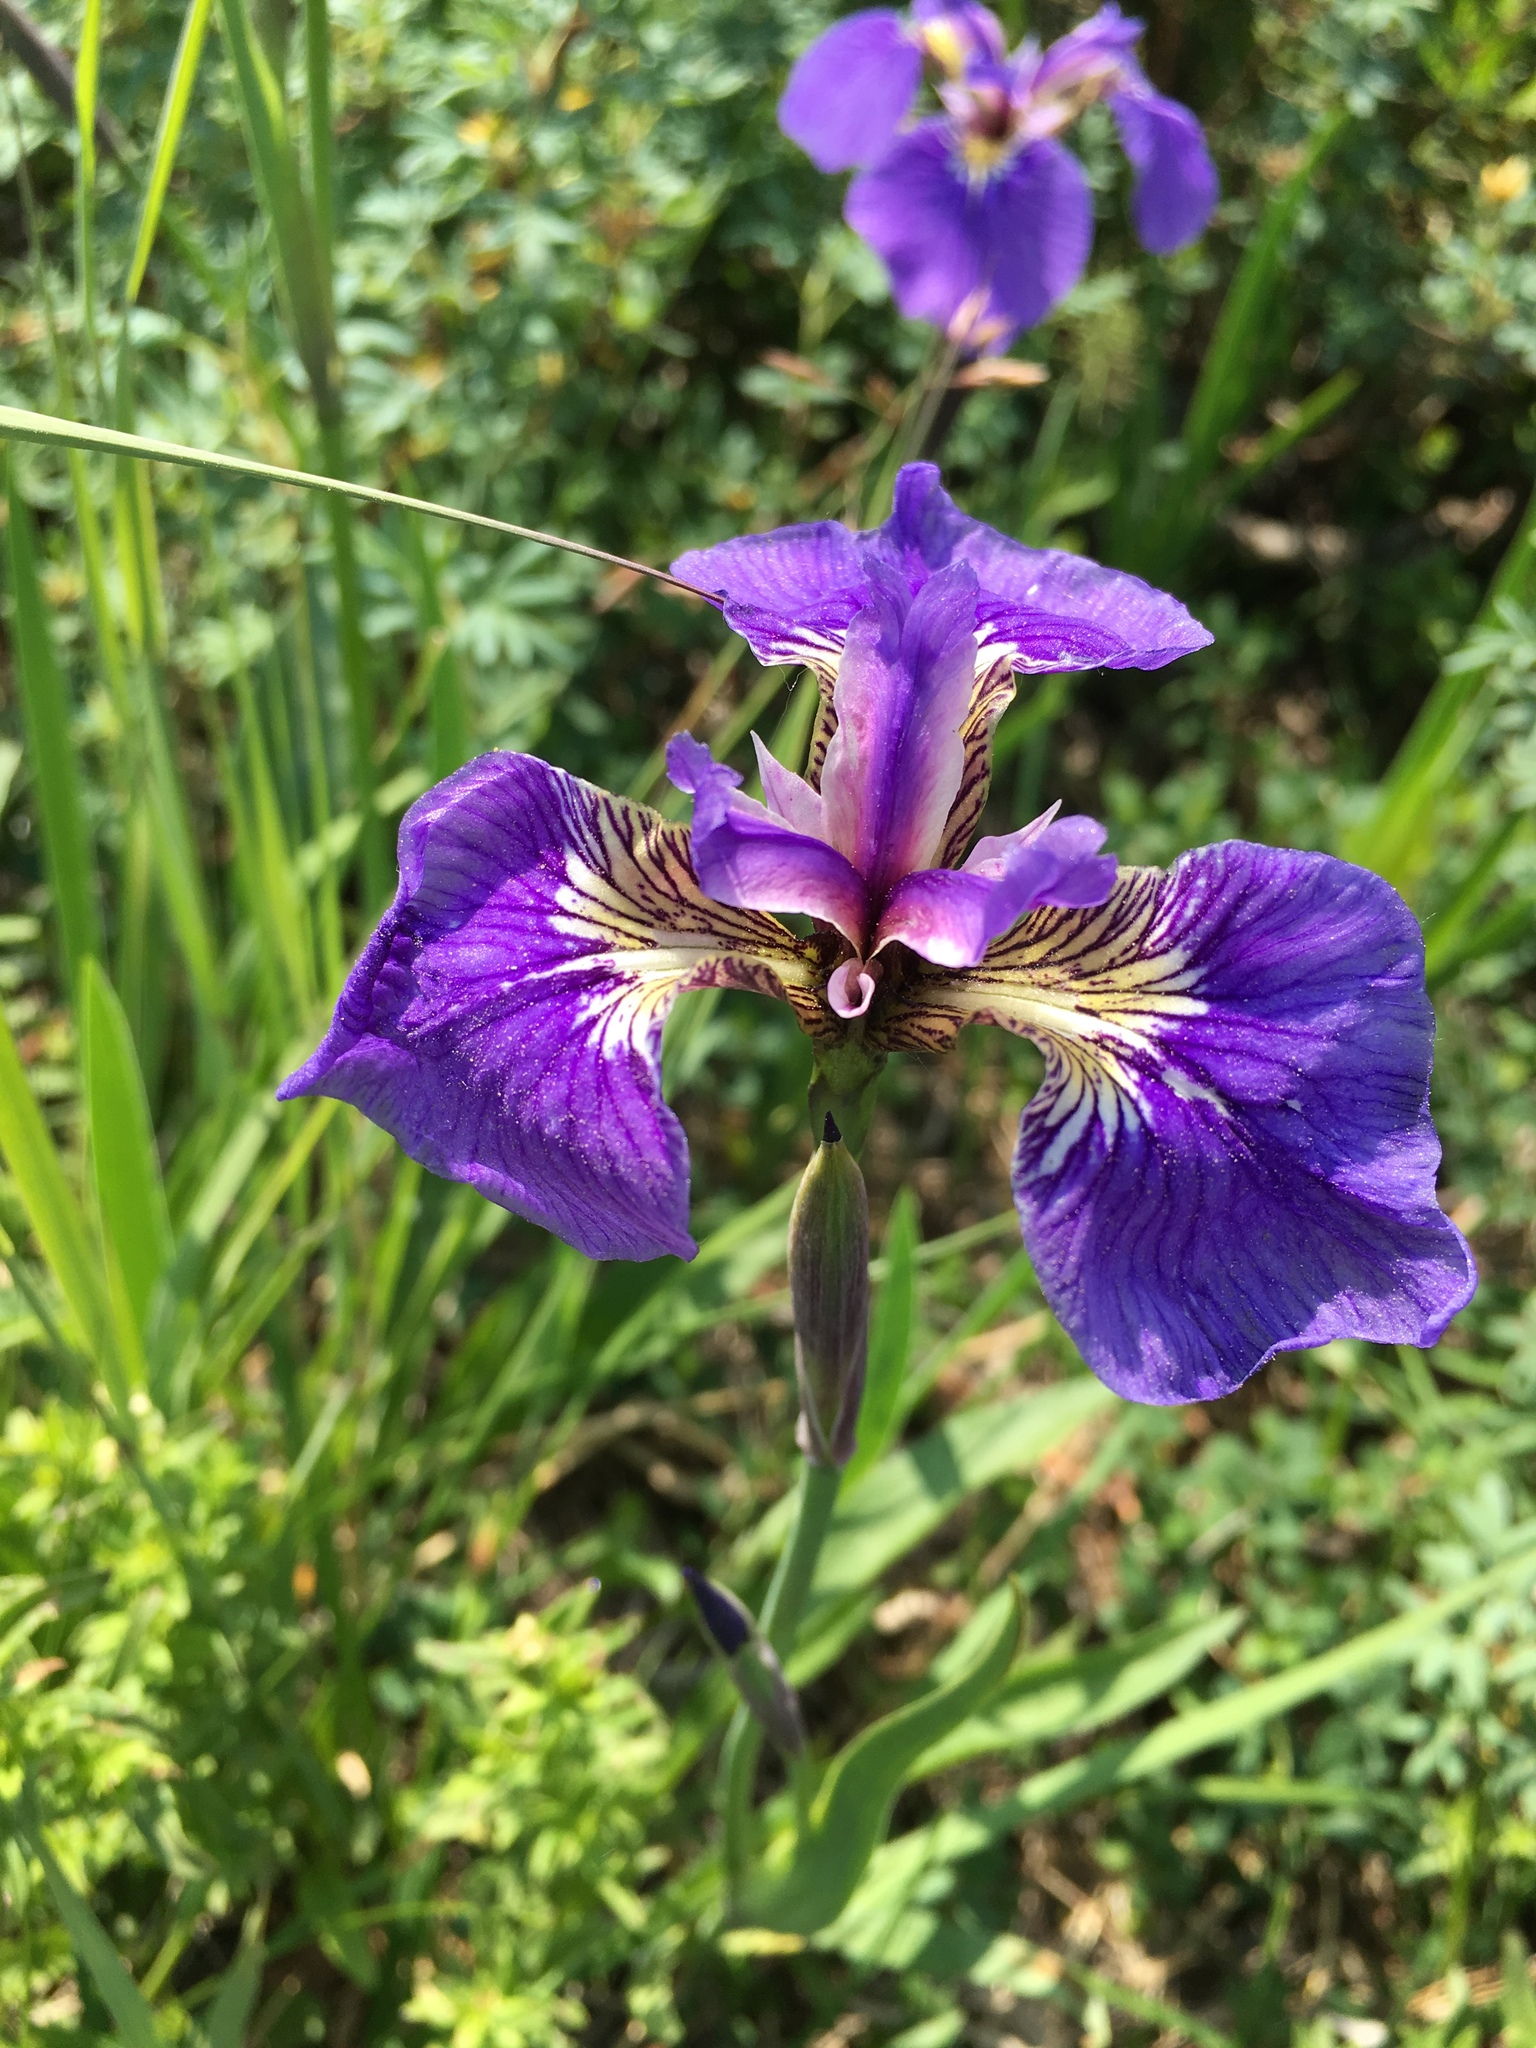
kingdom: Plantae
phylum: Tracheophyta
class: Liliopsida
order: Asparagales
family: Iridaceae
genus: Iris
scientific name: Iris setosa
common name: Arctic blue flag
